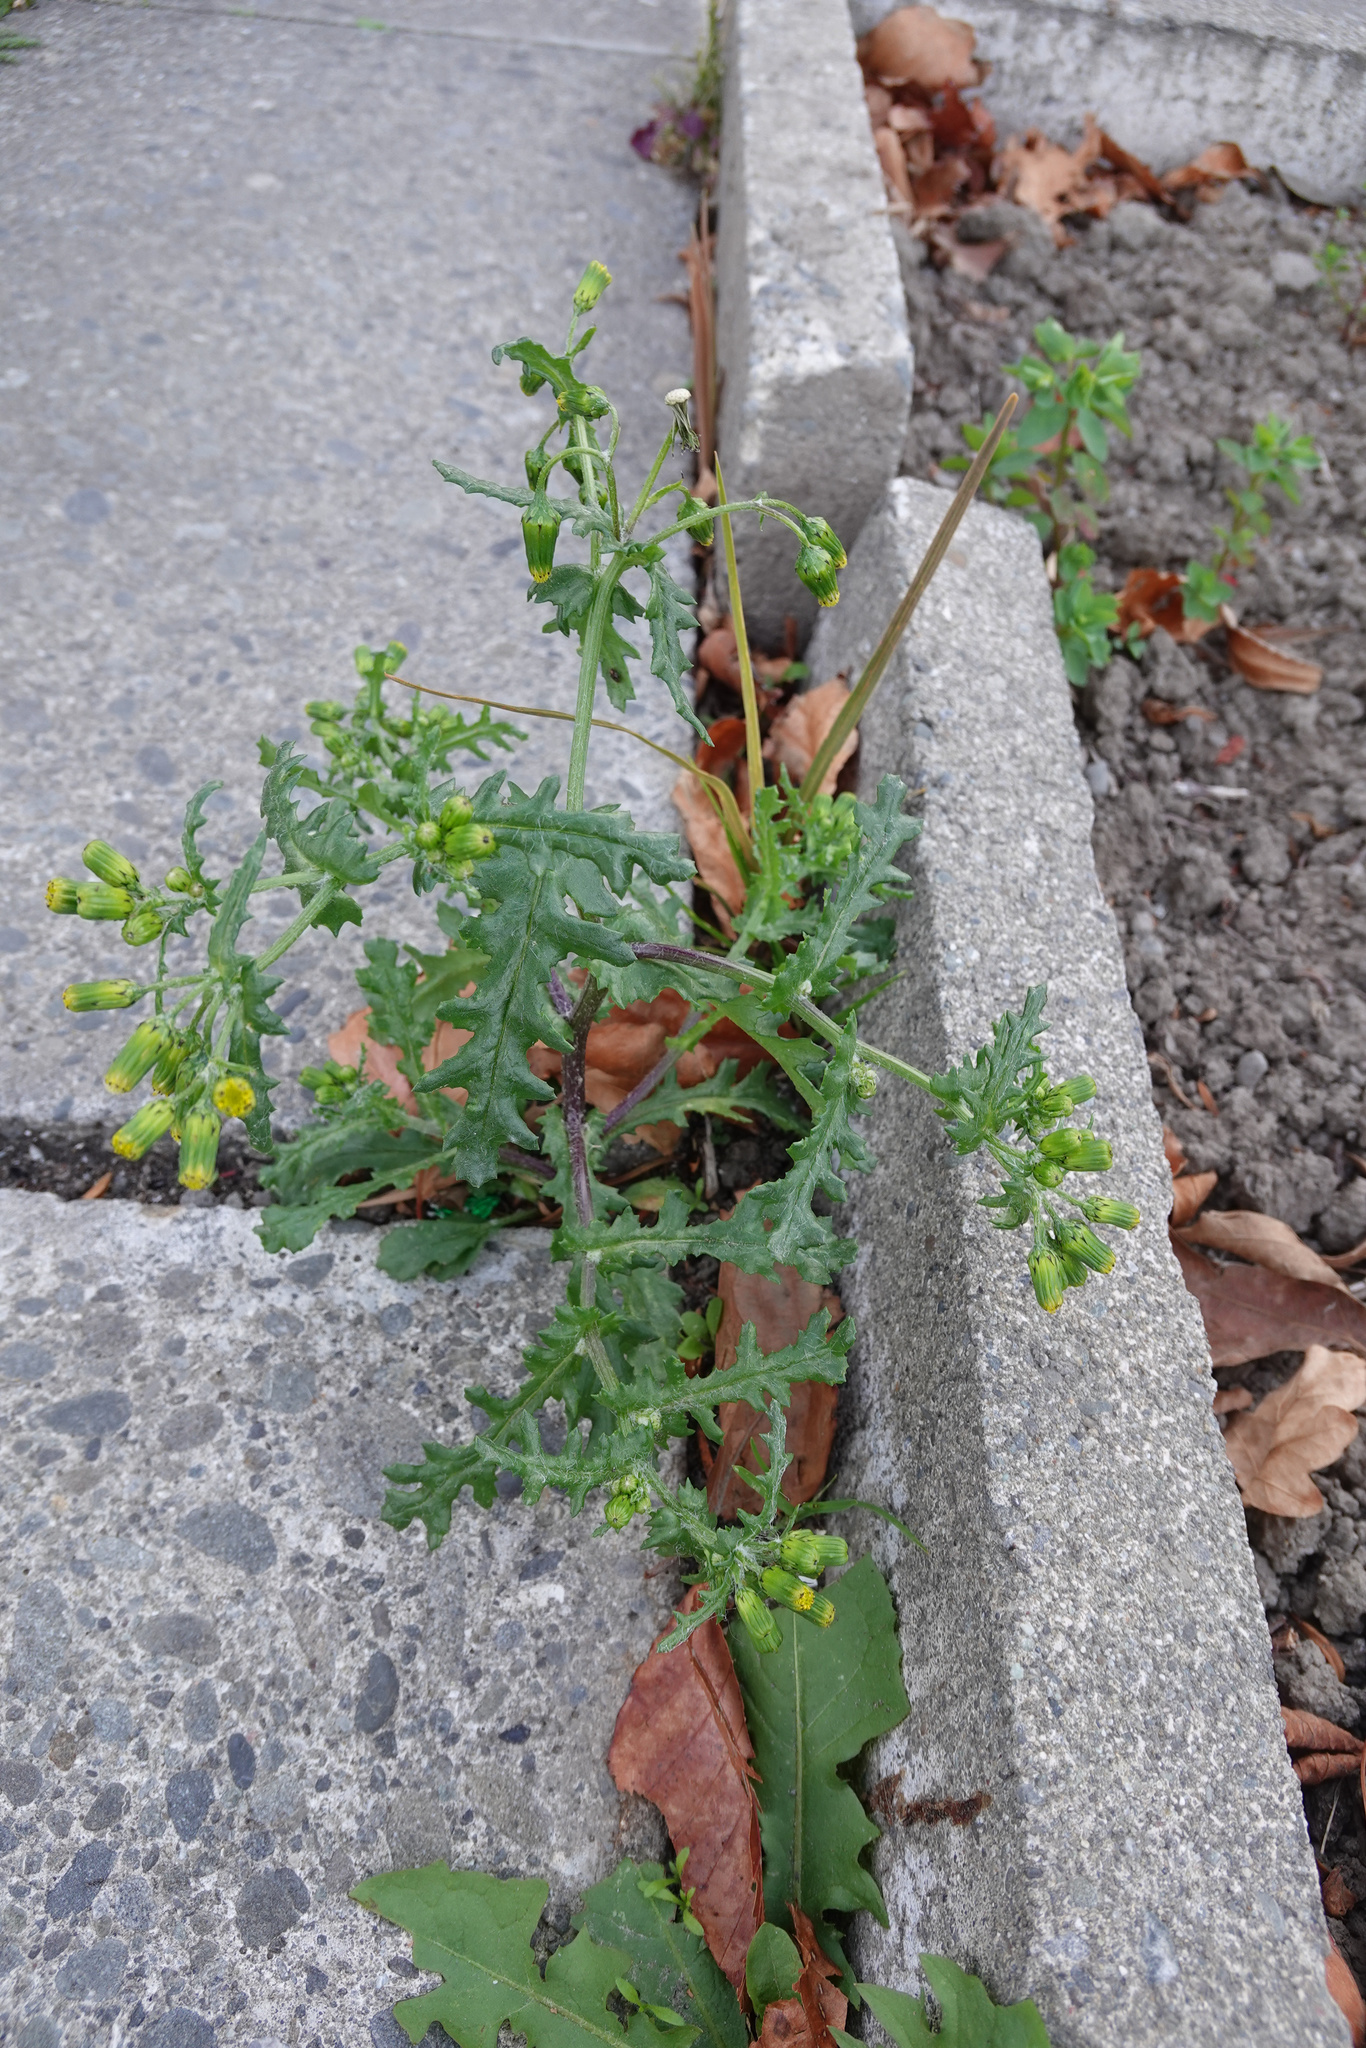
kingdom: Plantae
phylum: Tracheophyta
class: Magnoliopsida
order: Asterales
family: Asteraceae
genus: Senecio
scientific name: Senecio vulgaris
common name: Old-man-in-the-spring
